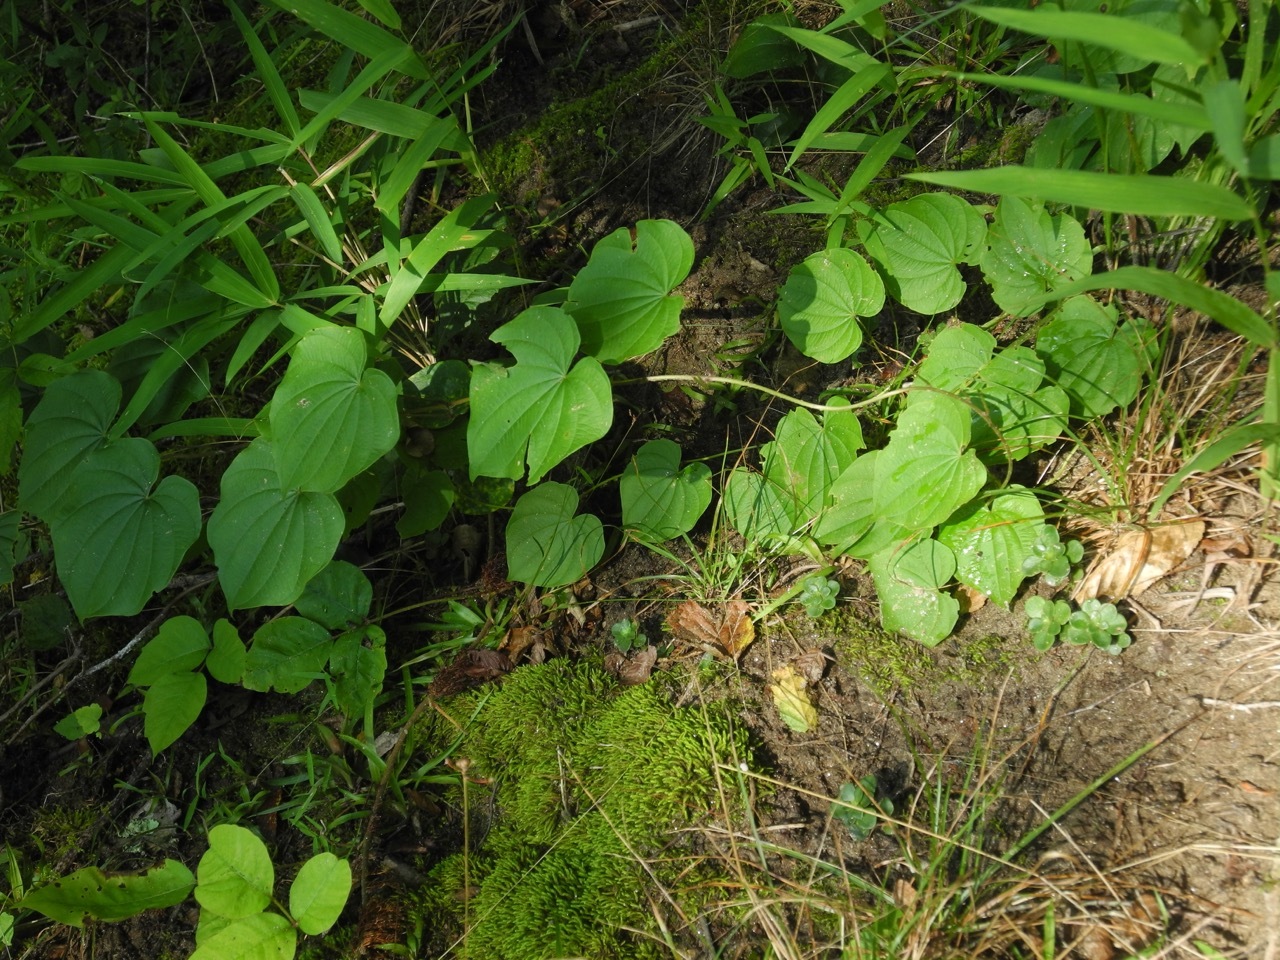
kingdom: Plantae
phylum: Tracheophyta
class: Liliopsida
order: Dioscoreales
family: Dioscoreaceae
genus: Dioscorea
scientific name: Dioscorea villosa
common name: Wild yam
